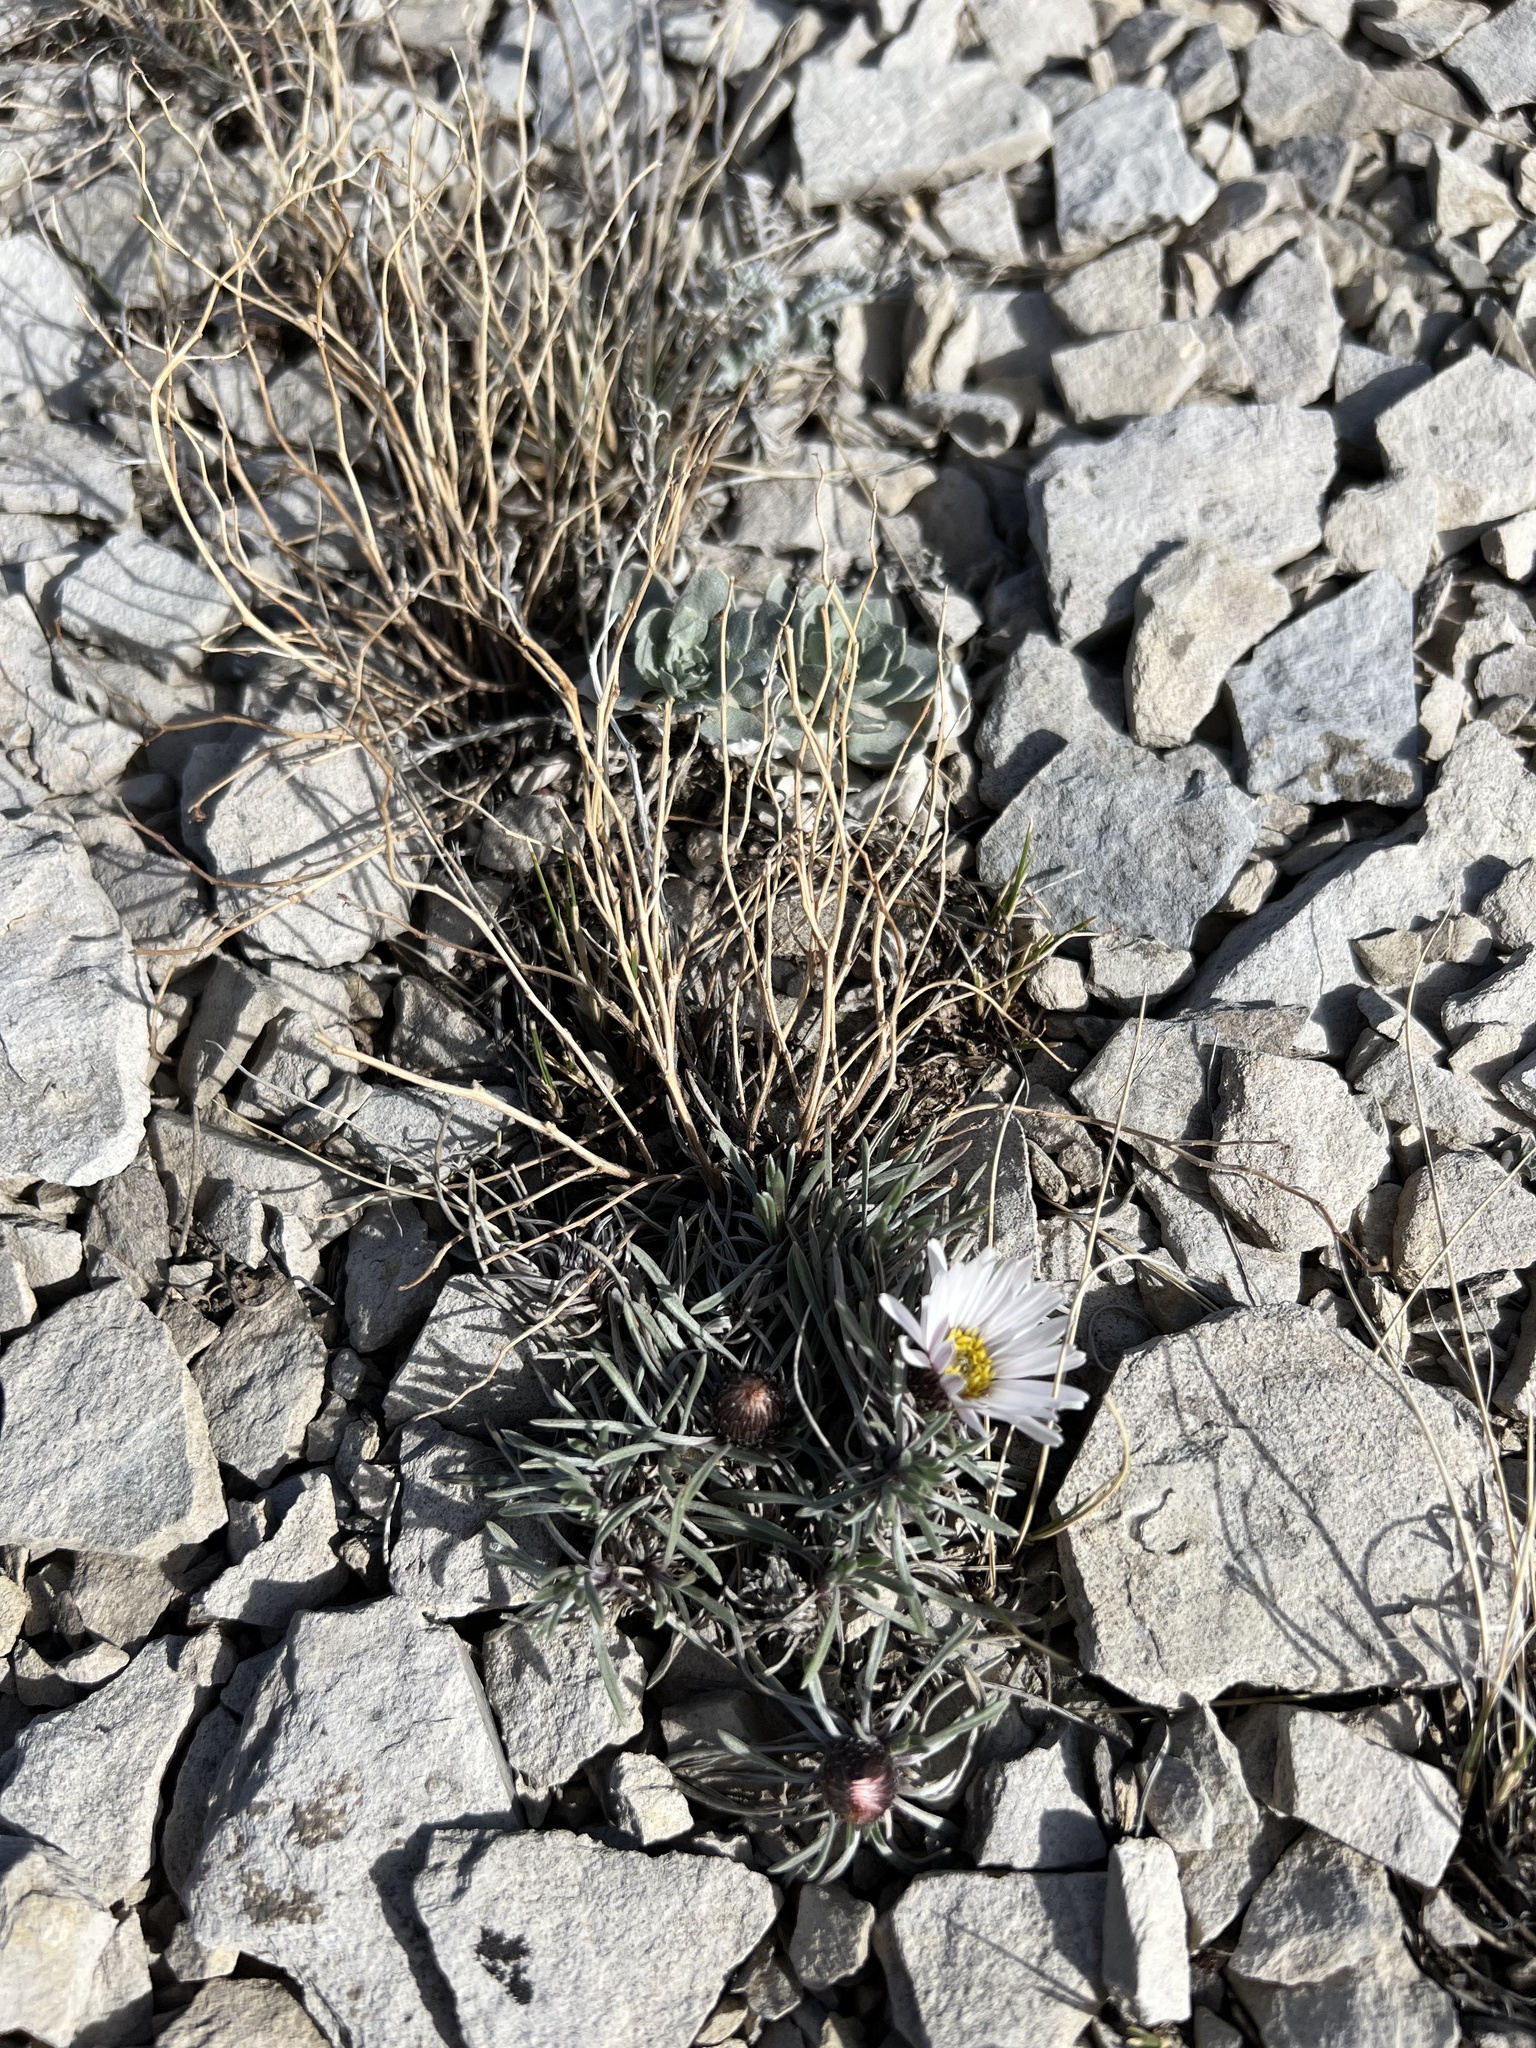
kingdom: Plantae
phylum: Tracheophyta
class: Magnoliopsida
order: Asterales
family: Asteraceae
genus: Townsendia
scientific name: Townsendia hookeri
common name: Hooker's townsend daisy
